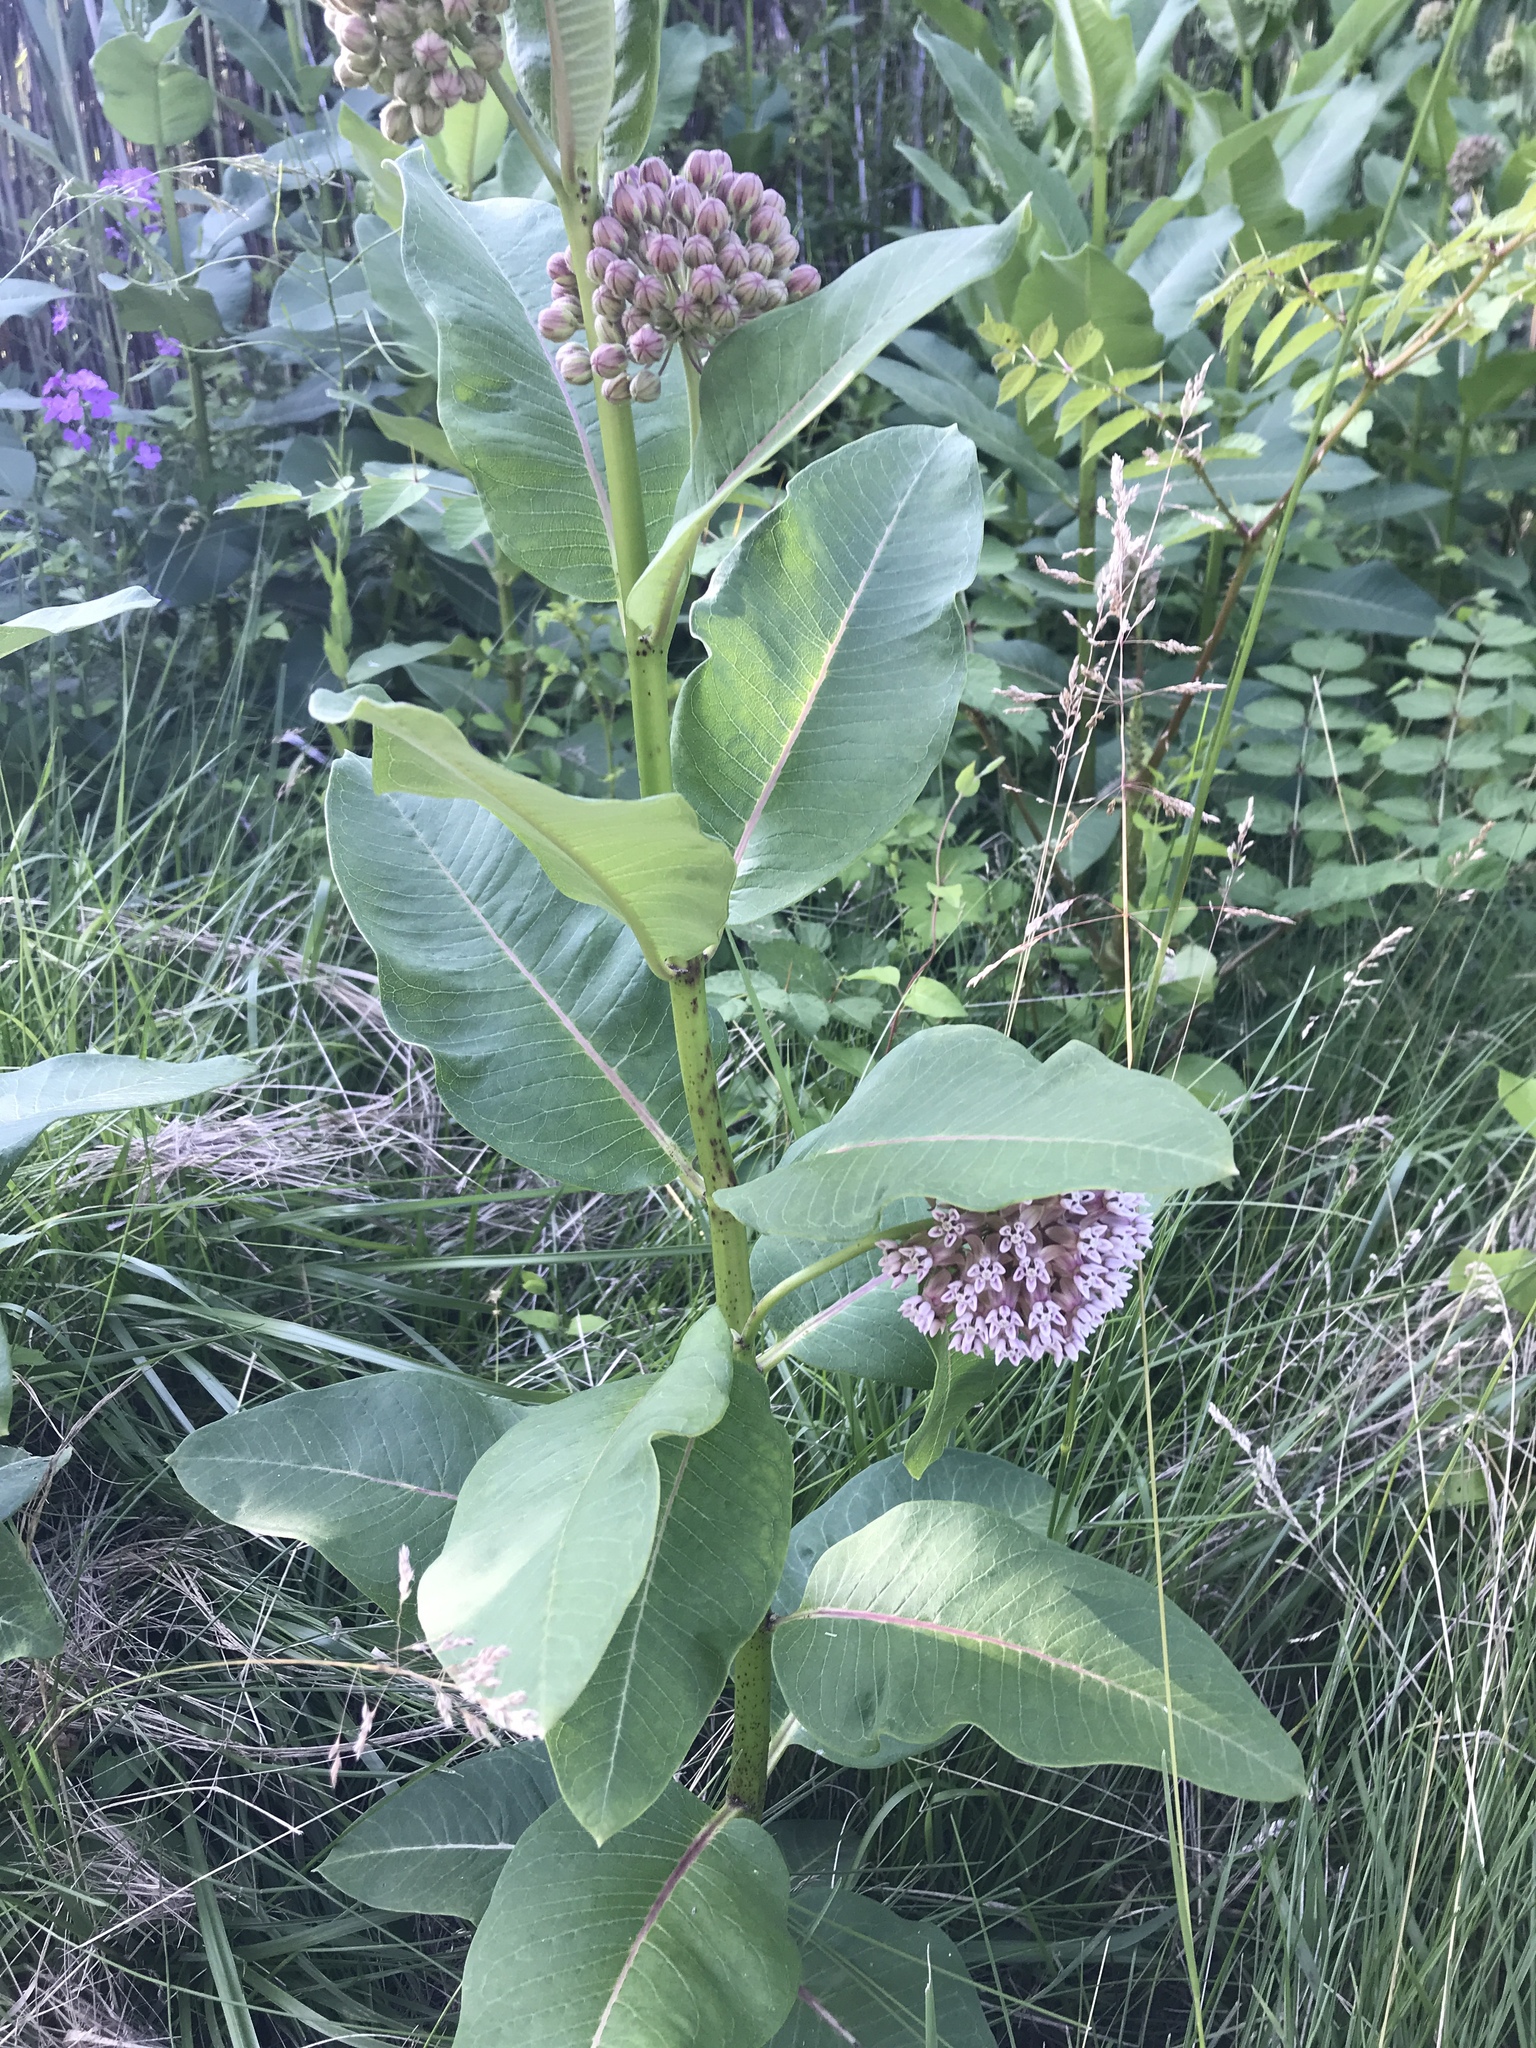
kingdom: Plantae
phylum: Tracheophyta
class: Magnoliopsida
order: Gentianales
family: Apocynaceae
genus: Asclepias
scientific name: Asclepias syriaca
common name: Common milkweed
